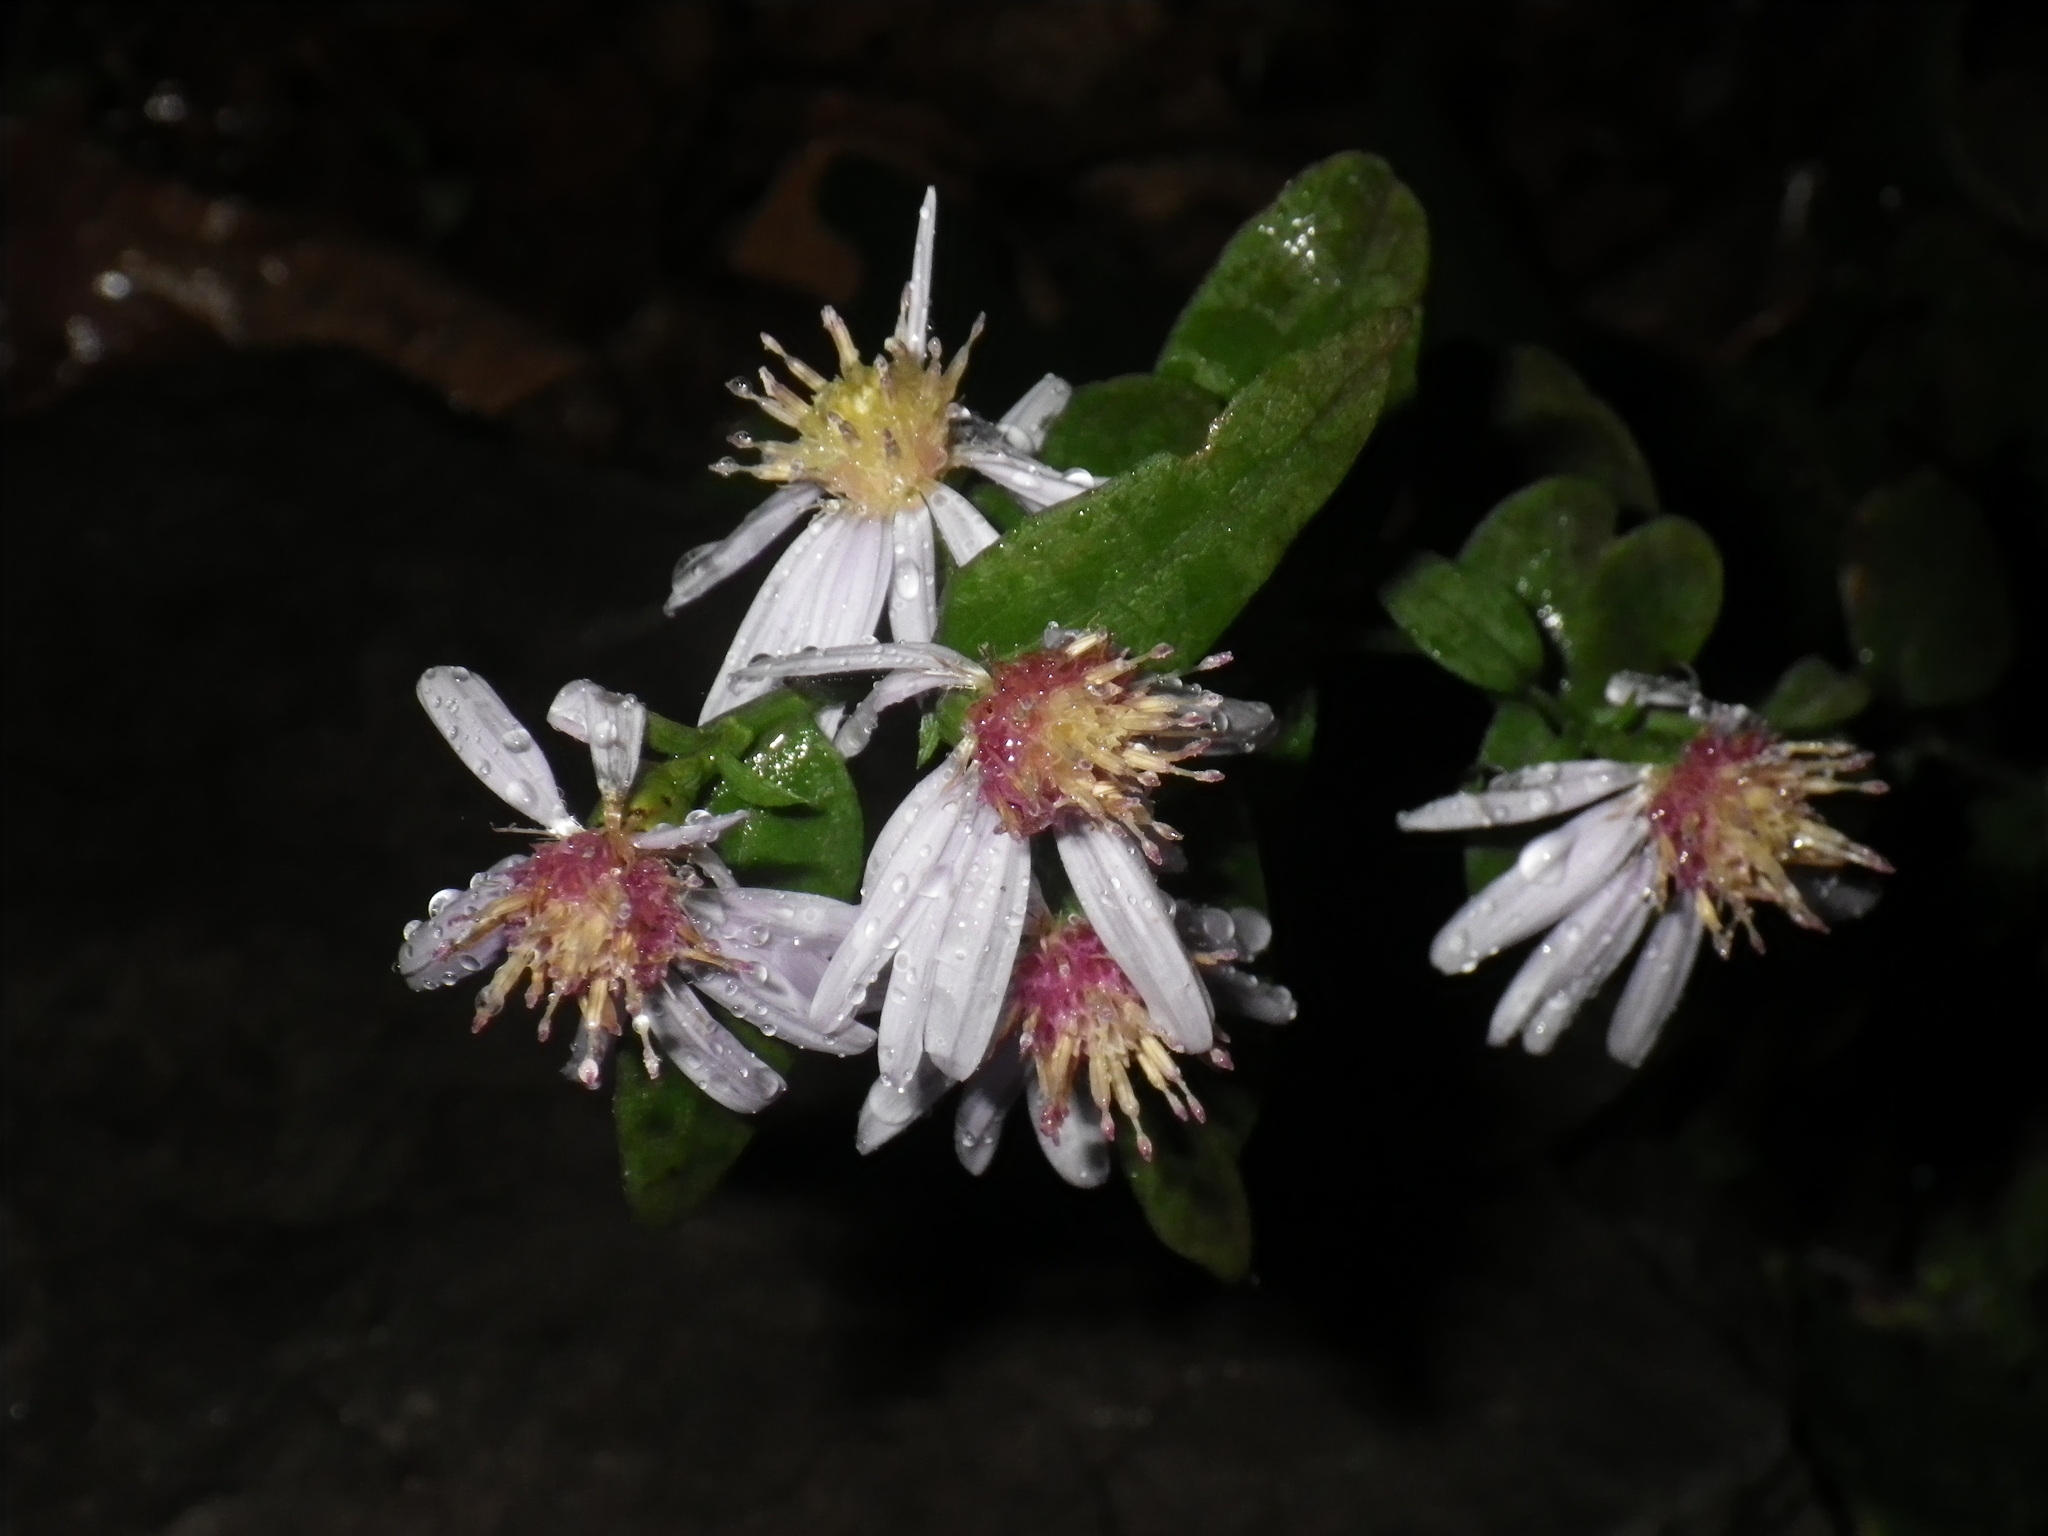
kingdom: Plantae
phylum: Tracheophyta
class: Magnoliopsida
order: Asterales
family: Asteraceae
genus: Symphyotrichum
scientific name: Symphyotrichum lateriflorum
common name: Calico aster
